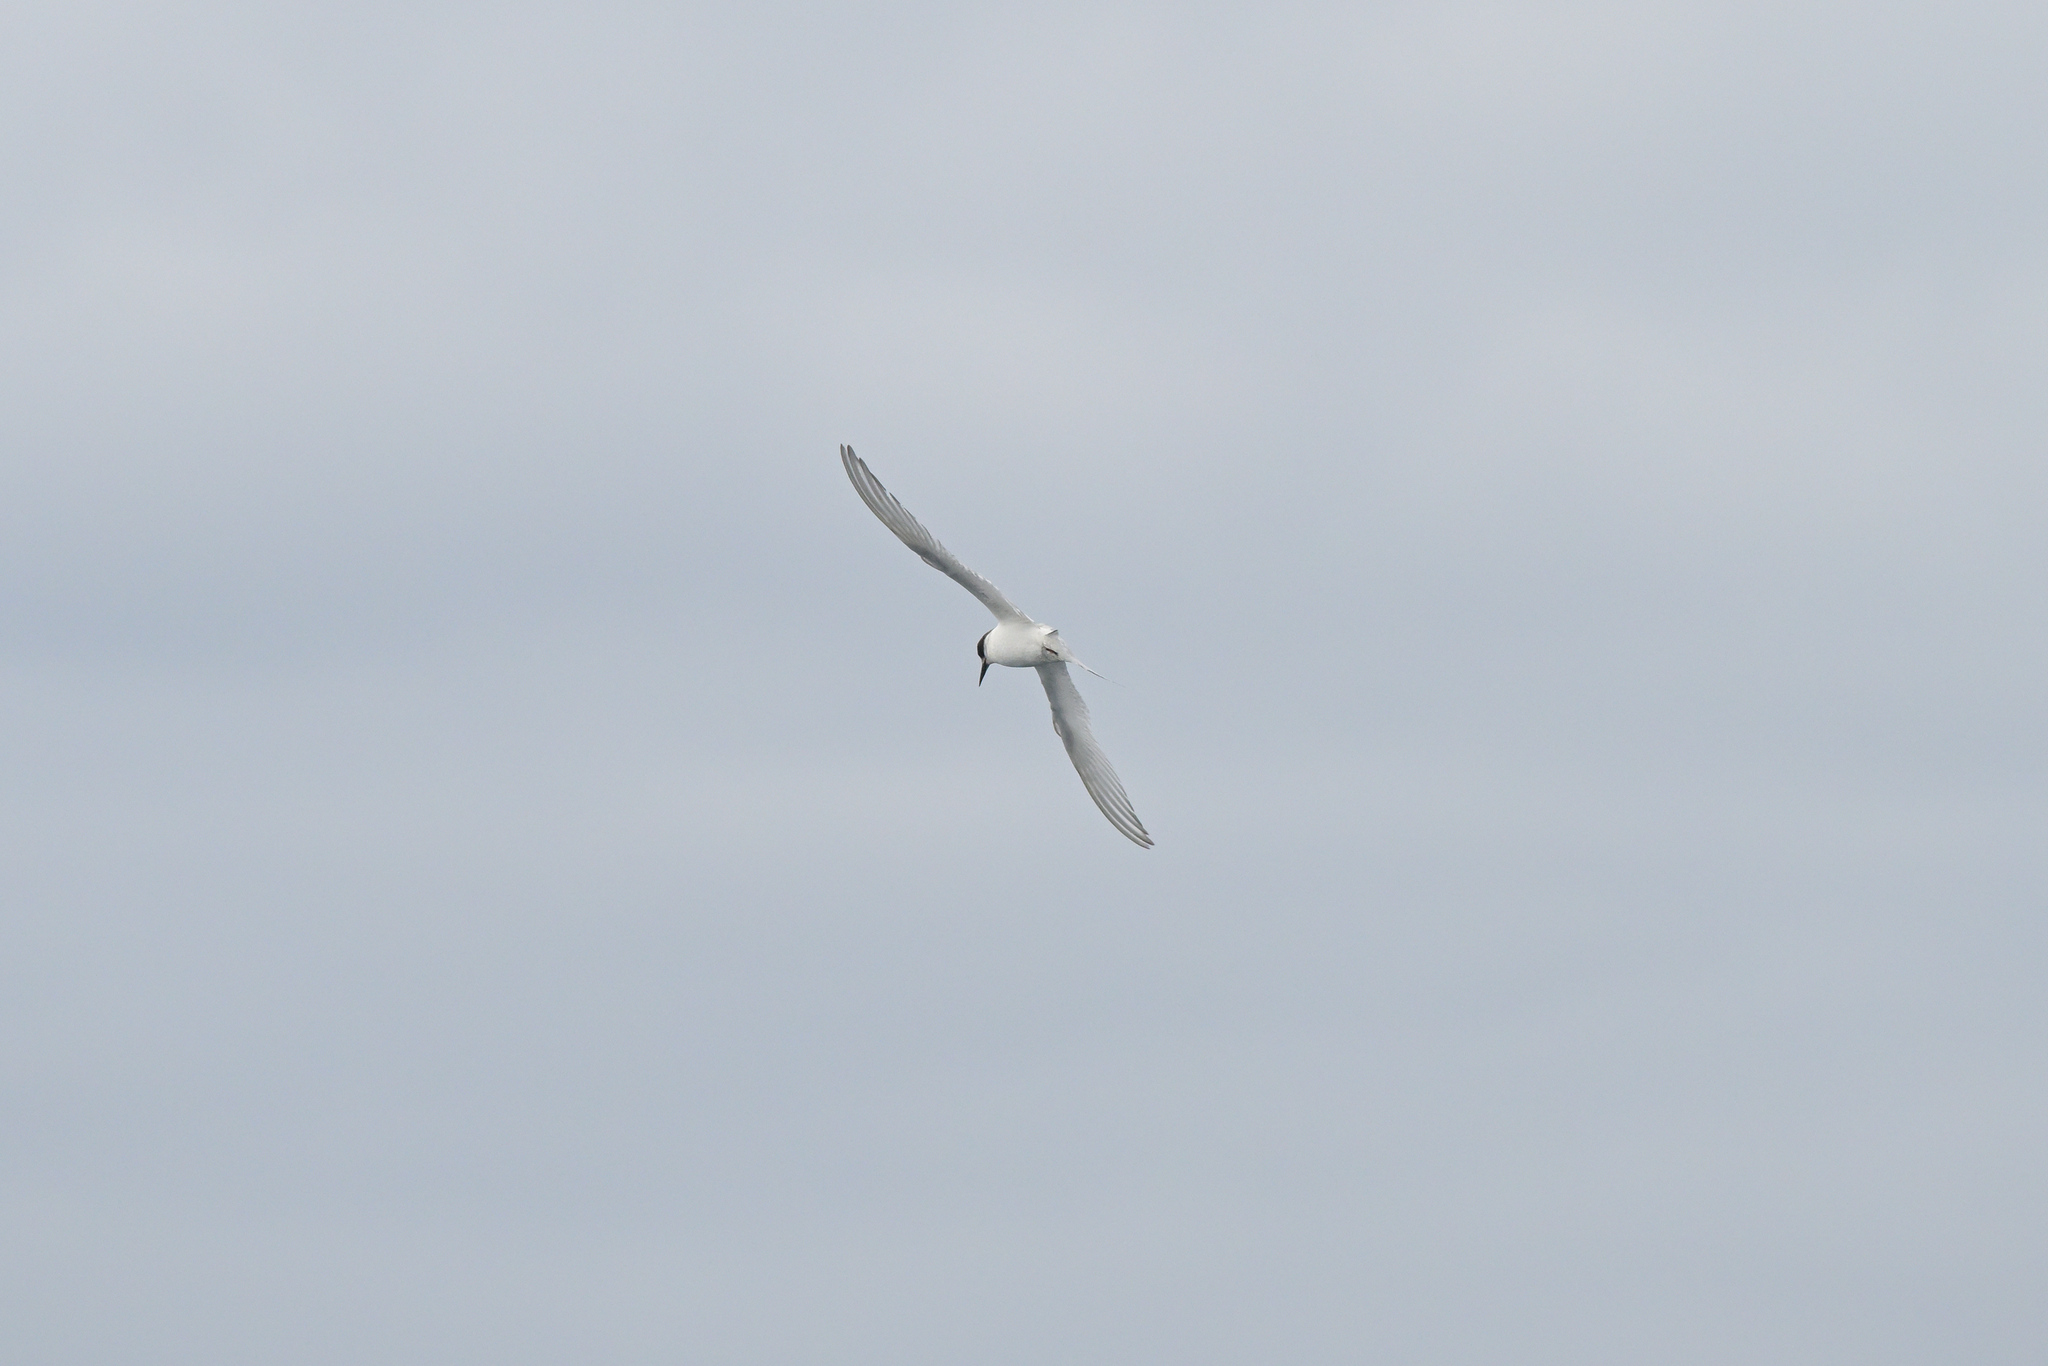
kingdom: Animalia
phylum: Chordata
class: Aves
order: Charadriiformes
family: Laridae
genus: Sterna
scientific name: Sterna striata
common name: White-fronted tern
